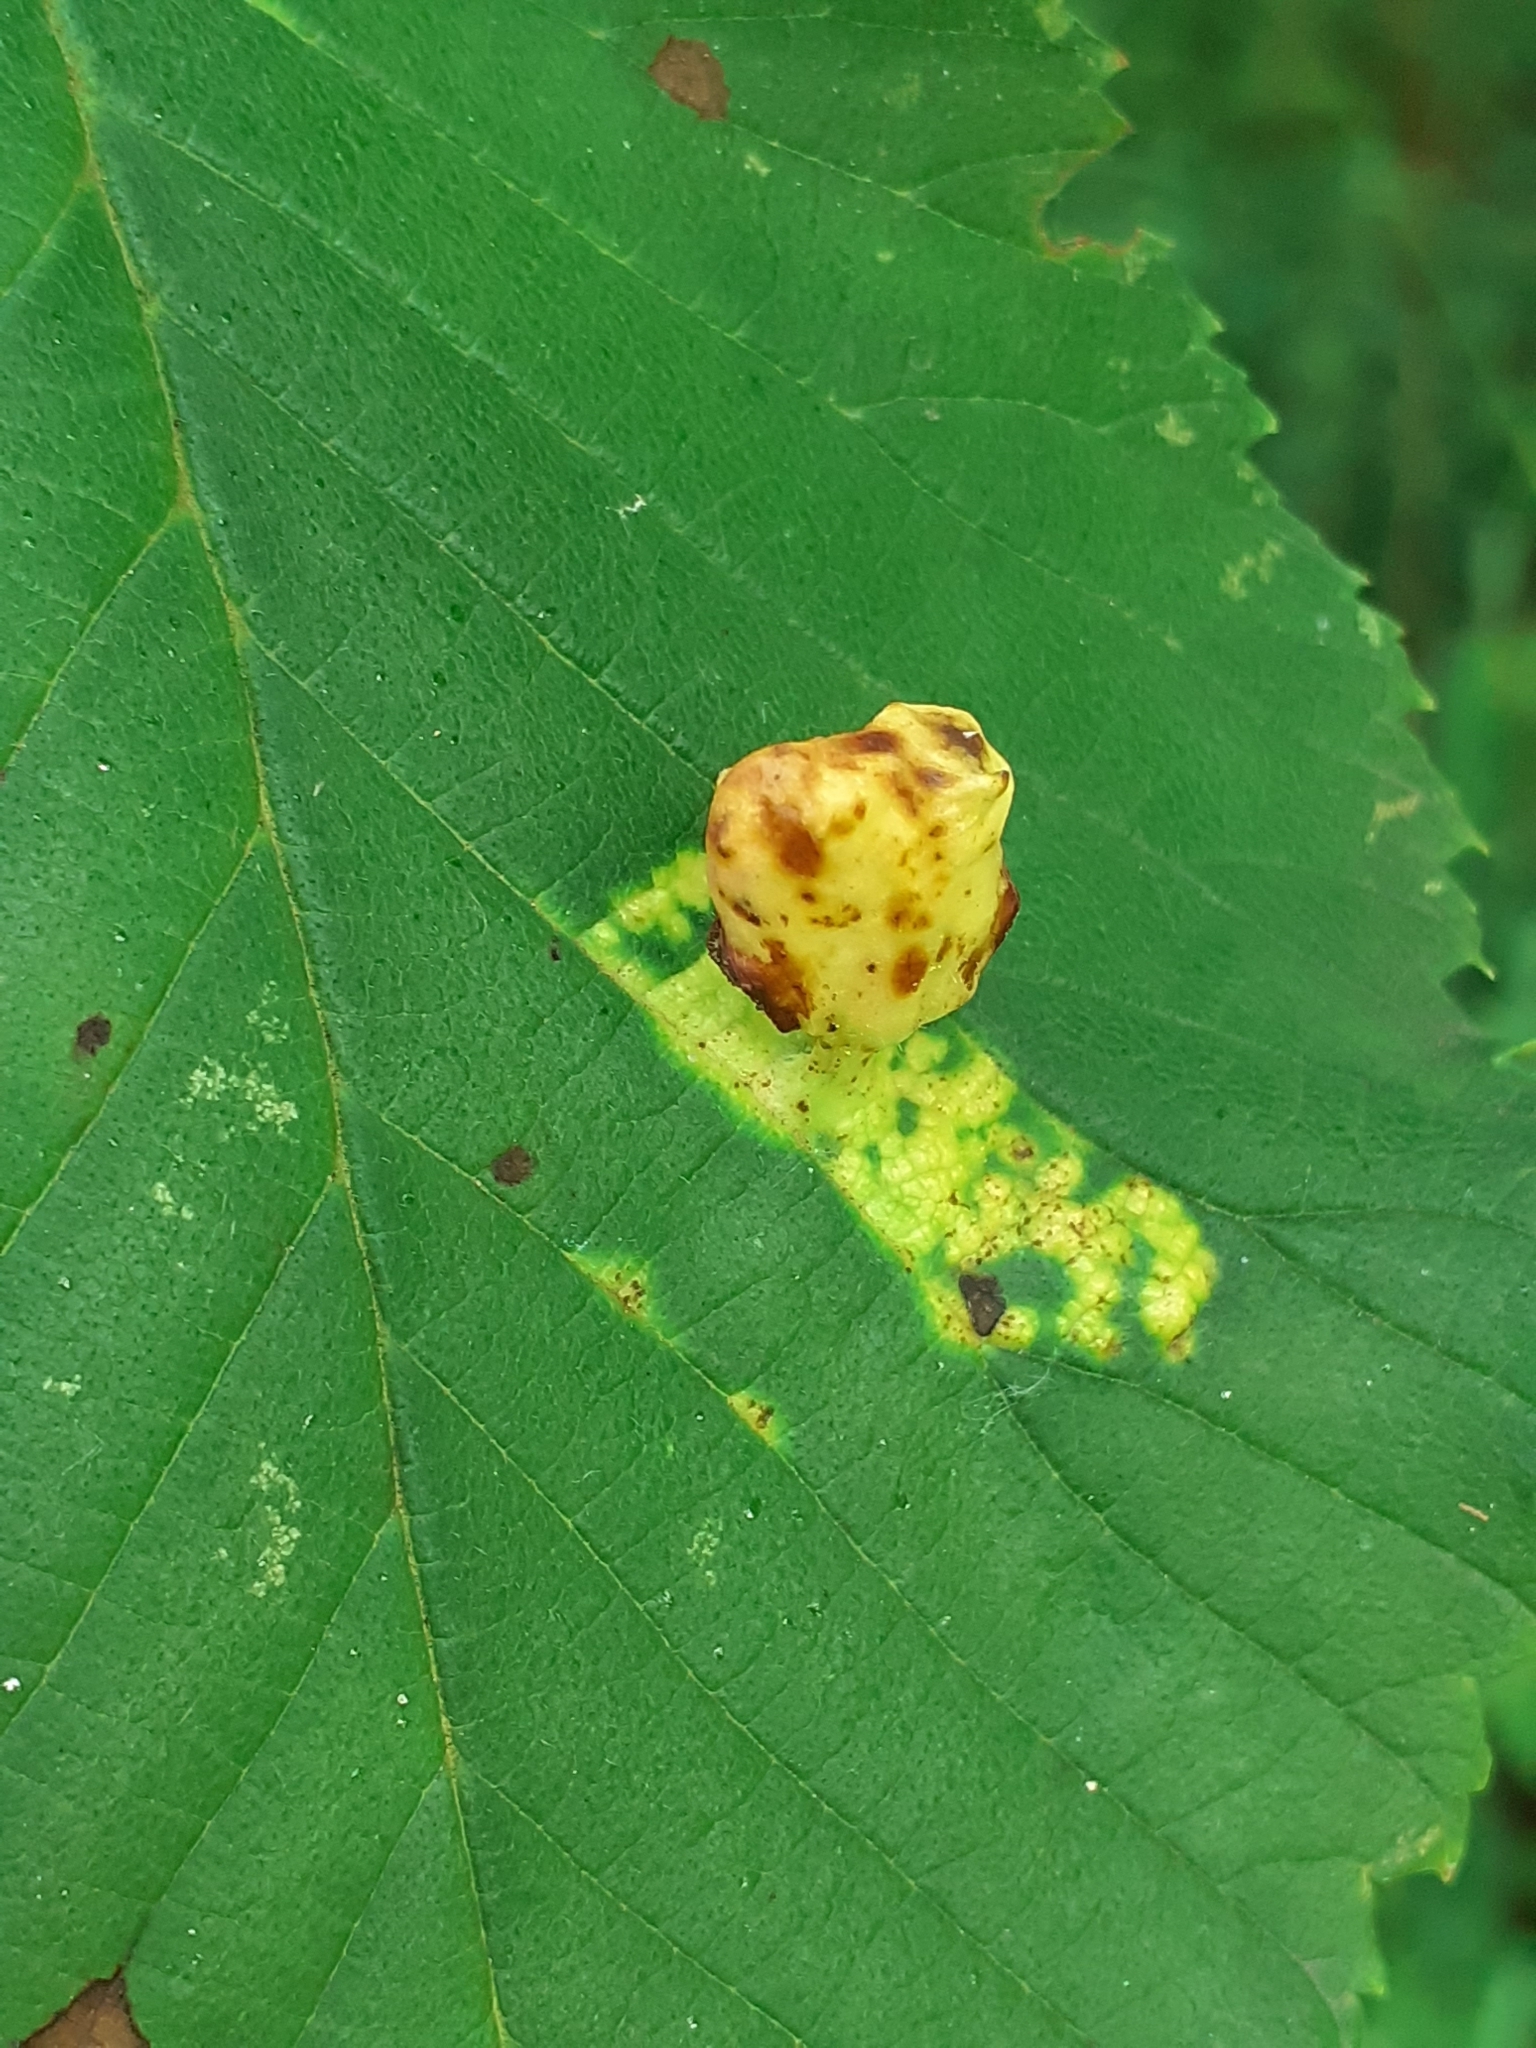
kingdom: Animalia
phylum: Arthropoda
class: Insecta
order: Hemiptera
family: Aphididae
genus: Tetraneura
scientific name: Tetraneura ulmi
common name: Aphid
